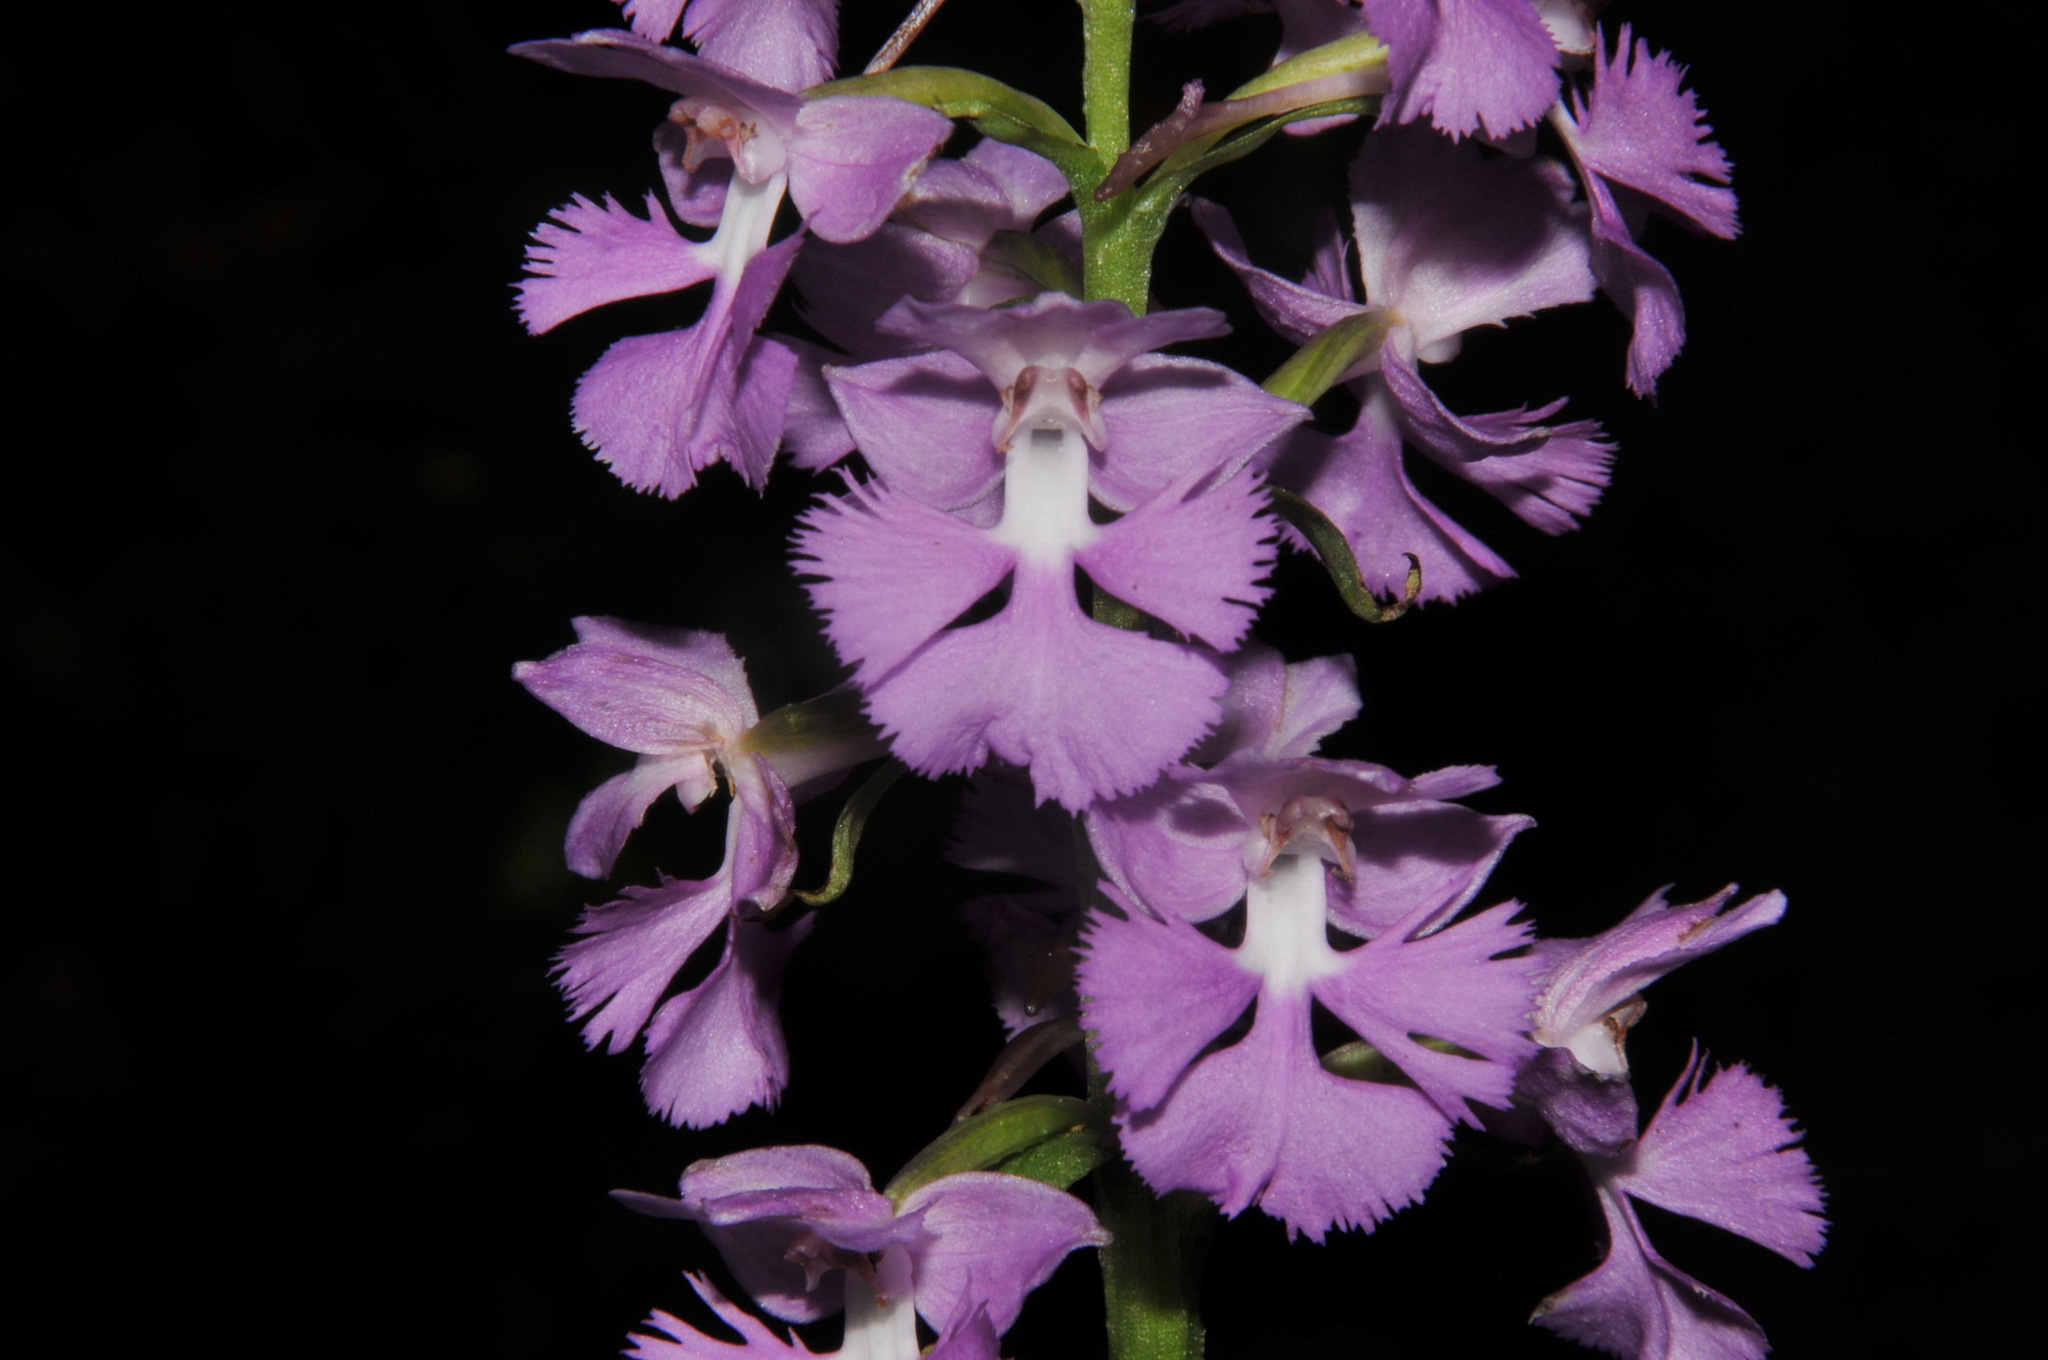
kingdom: Plantae
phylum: Tracheophyta
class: Liliopsida
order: Asparagales
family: Orchidaceae
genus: Platanthera
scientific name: Platanthera grandiflora
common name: Greater purple fringed orchid
